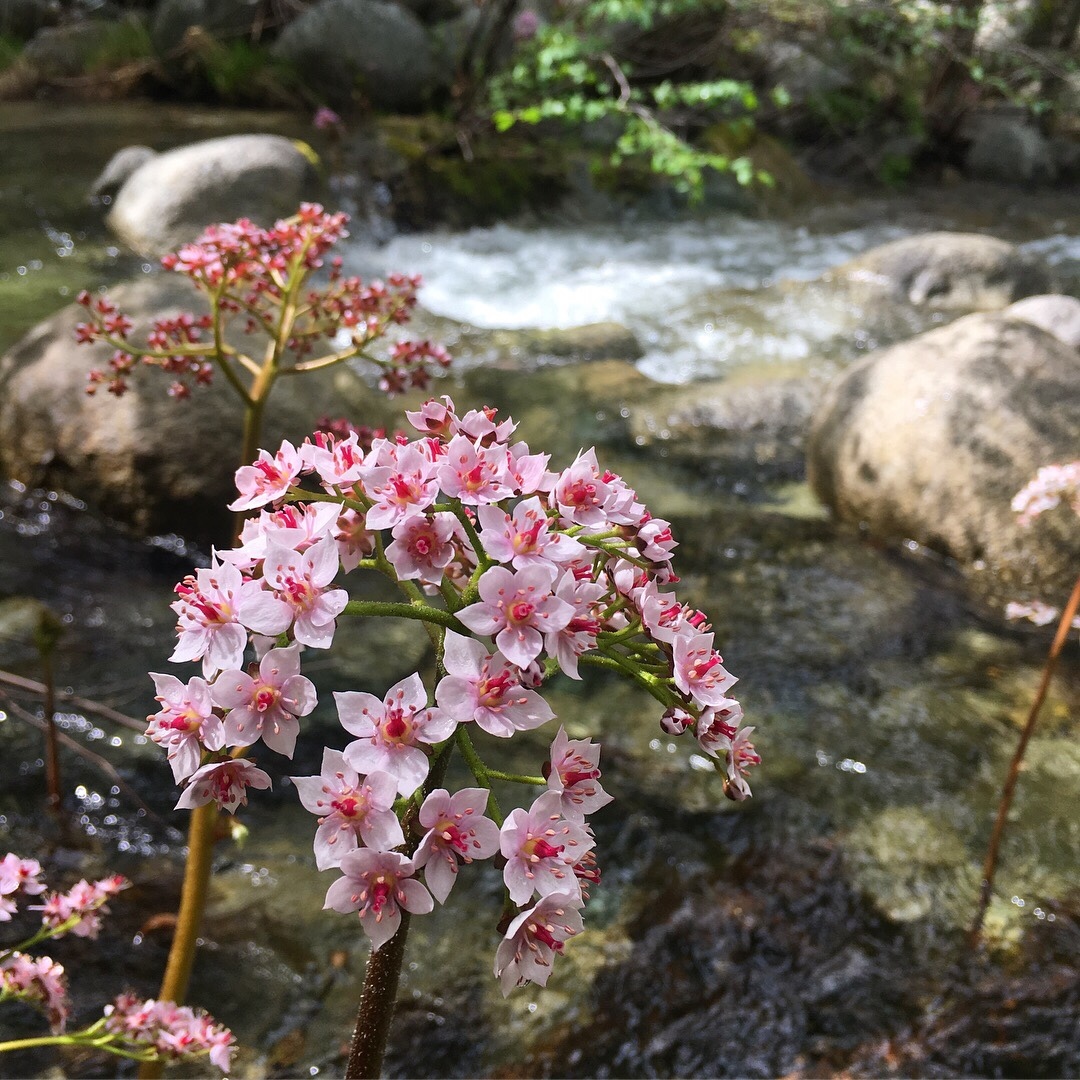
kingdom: Plantae
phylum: Tracheophyta
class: Magnoliopsida
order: Saxifragales
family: Saxifragaceae
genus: Darmera
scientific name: Darmera peltata
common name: Indian-rhubarb
